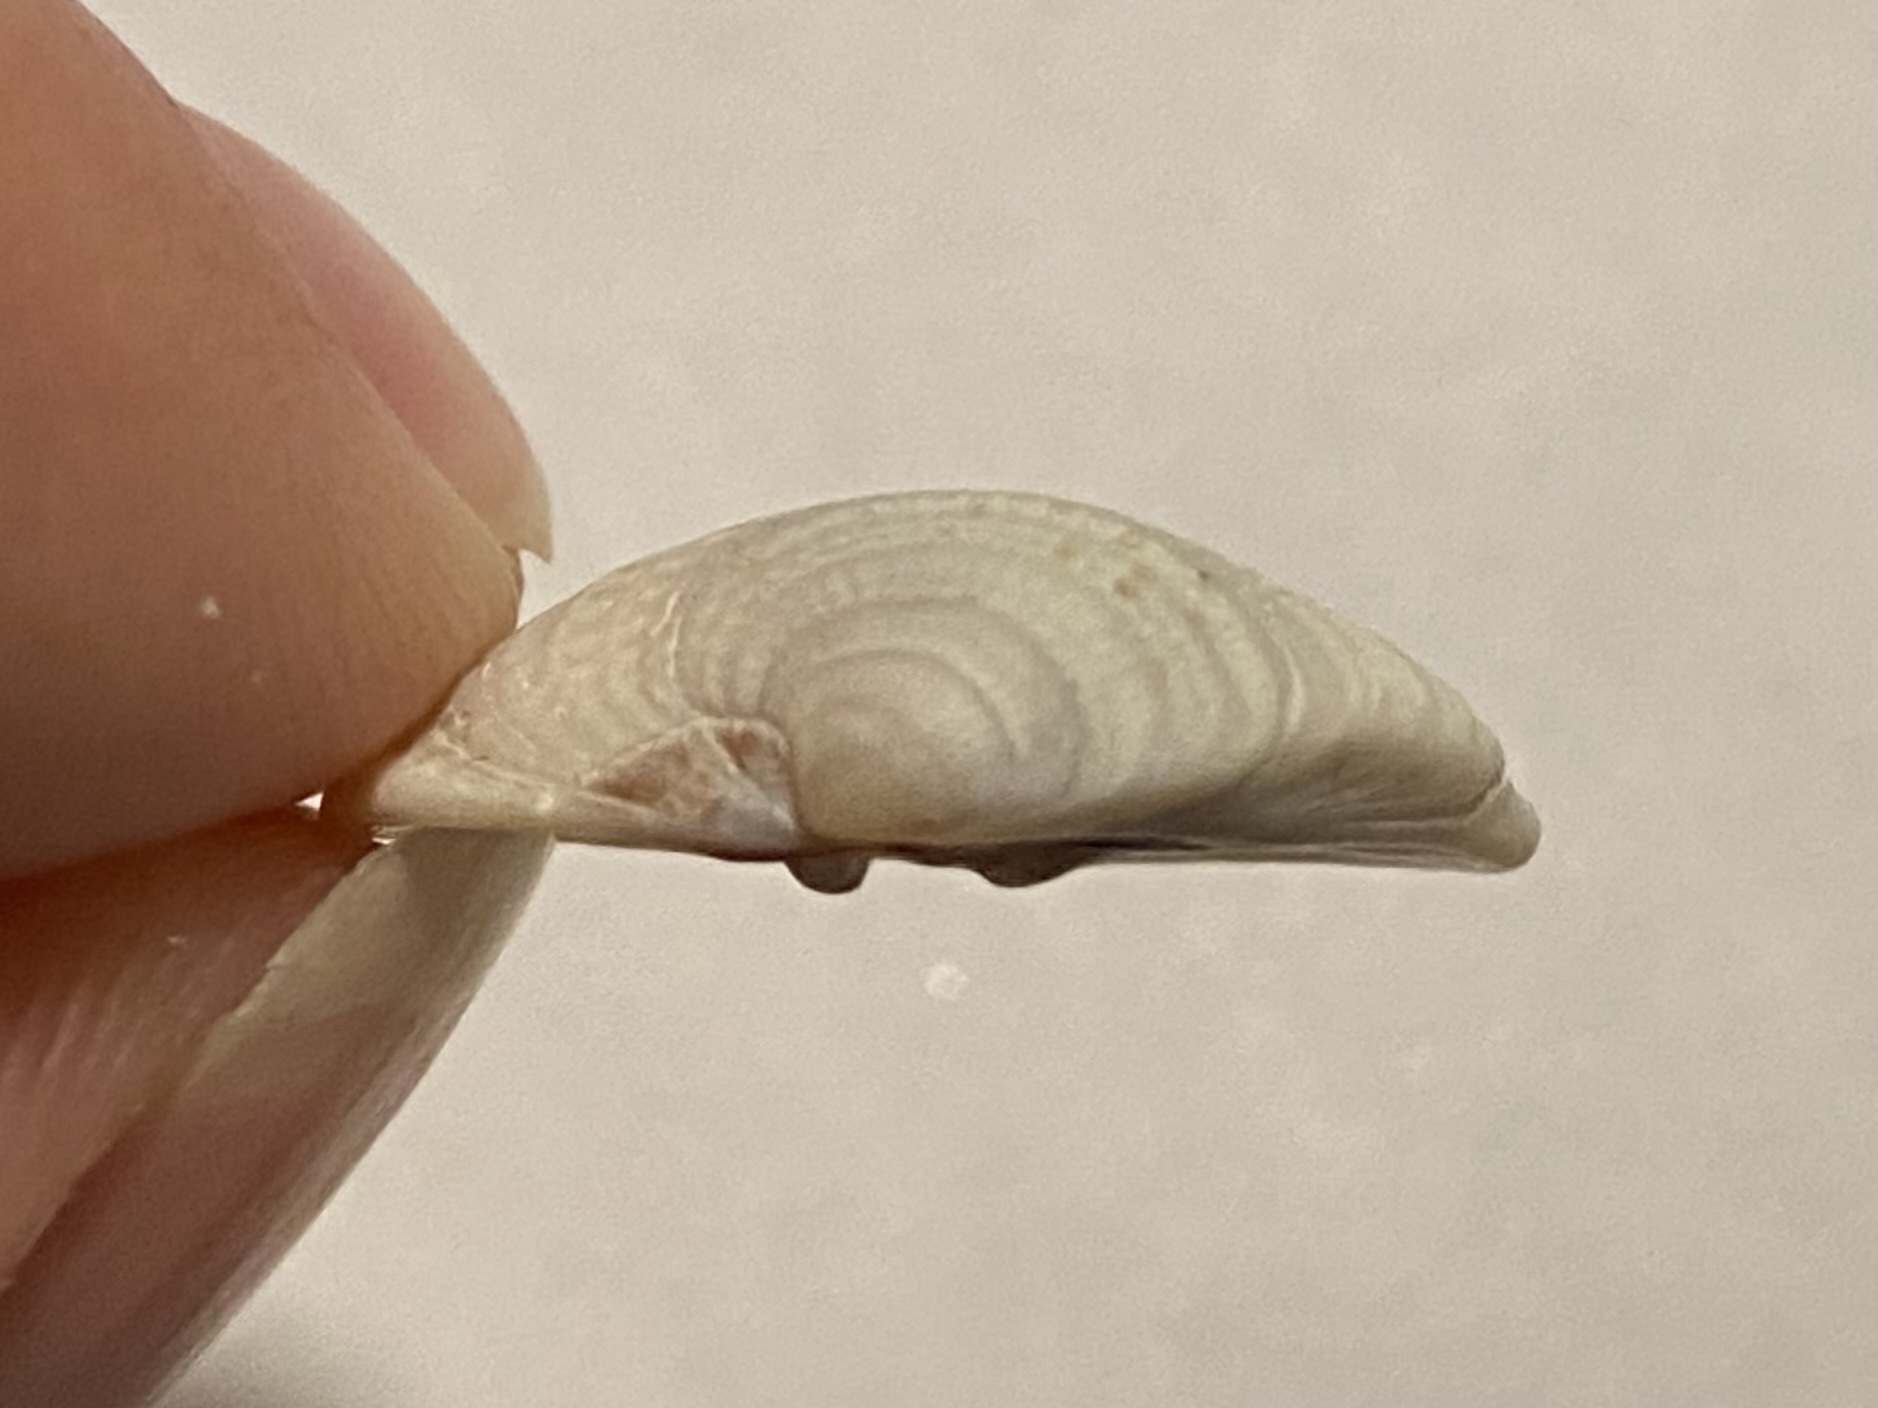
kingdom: Animalia
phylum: Mollusca
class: Bivalvia
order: Venerida
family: Veneridae
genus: Chione
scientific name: Chione elevata
